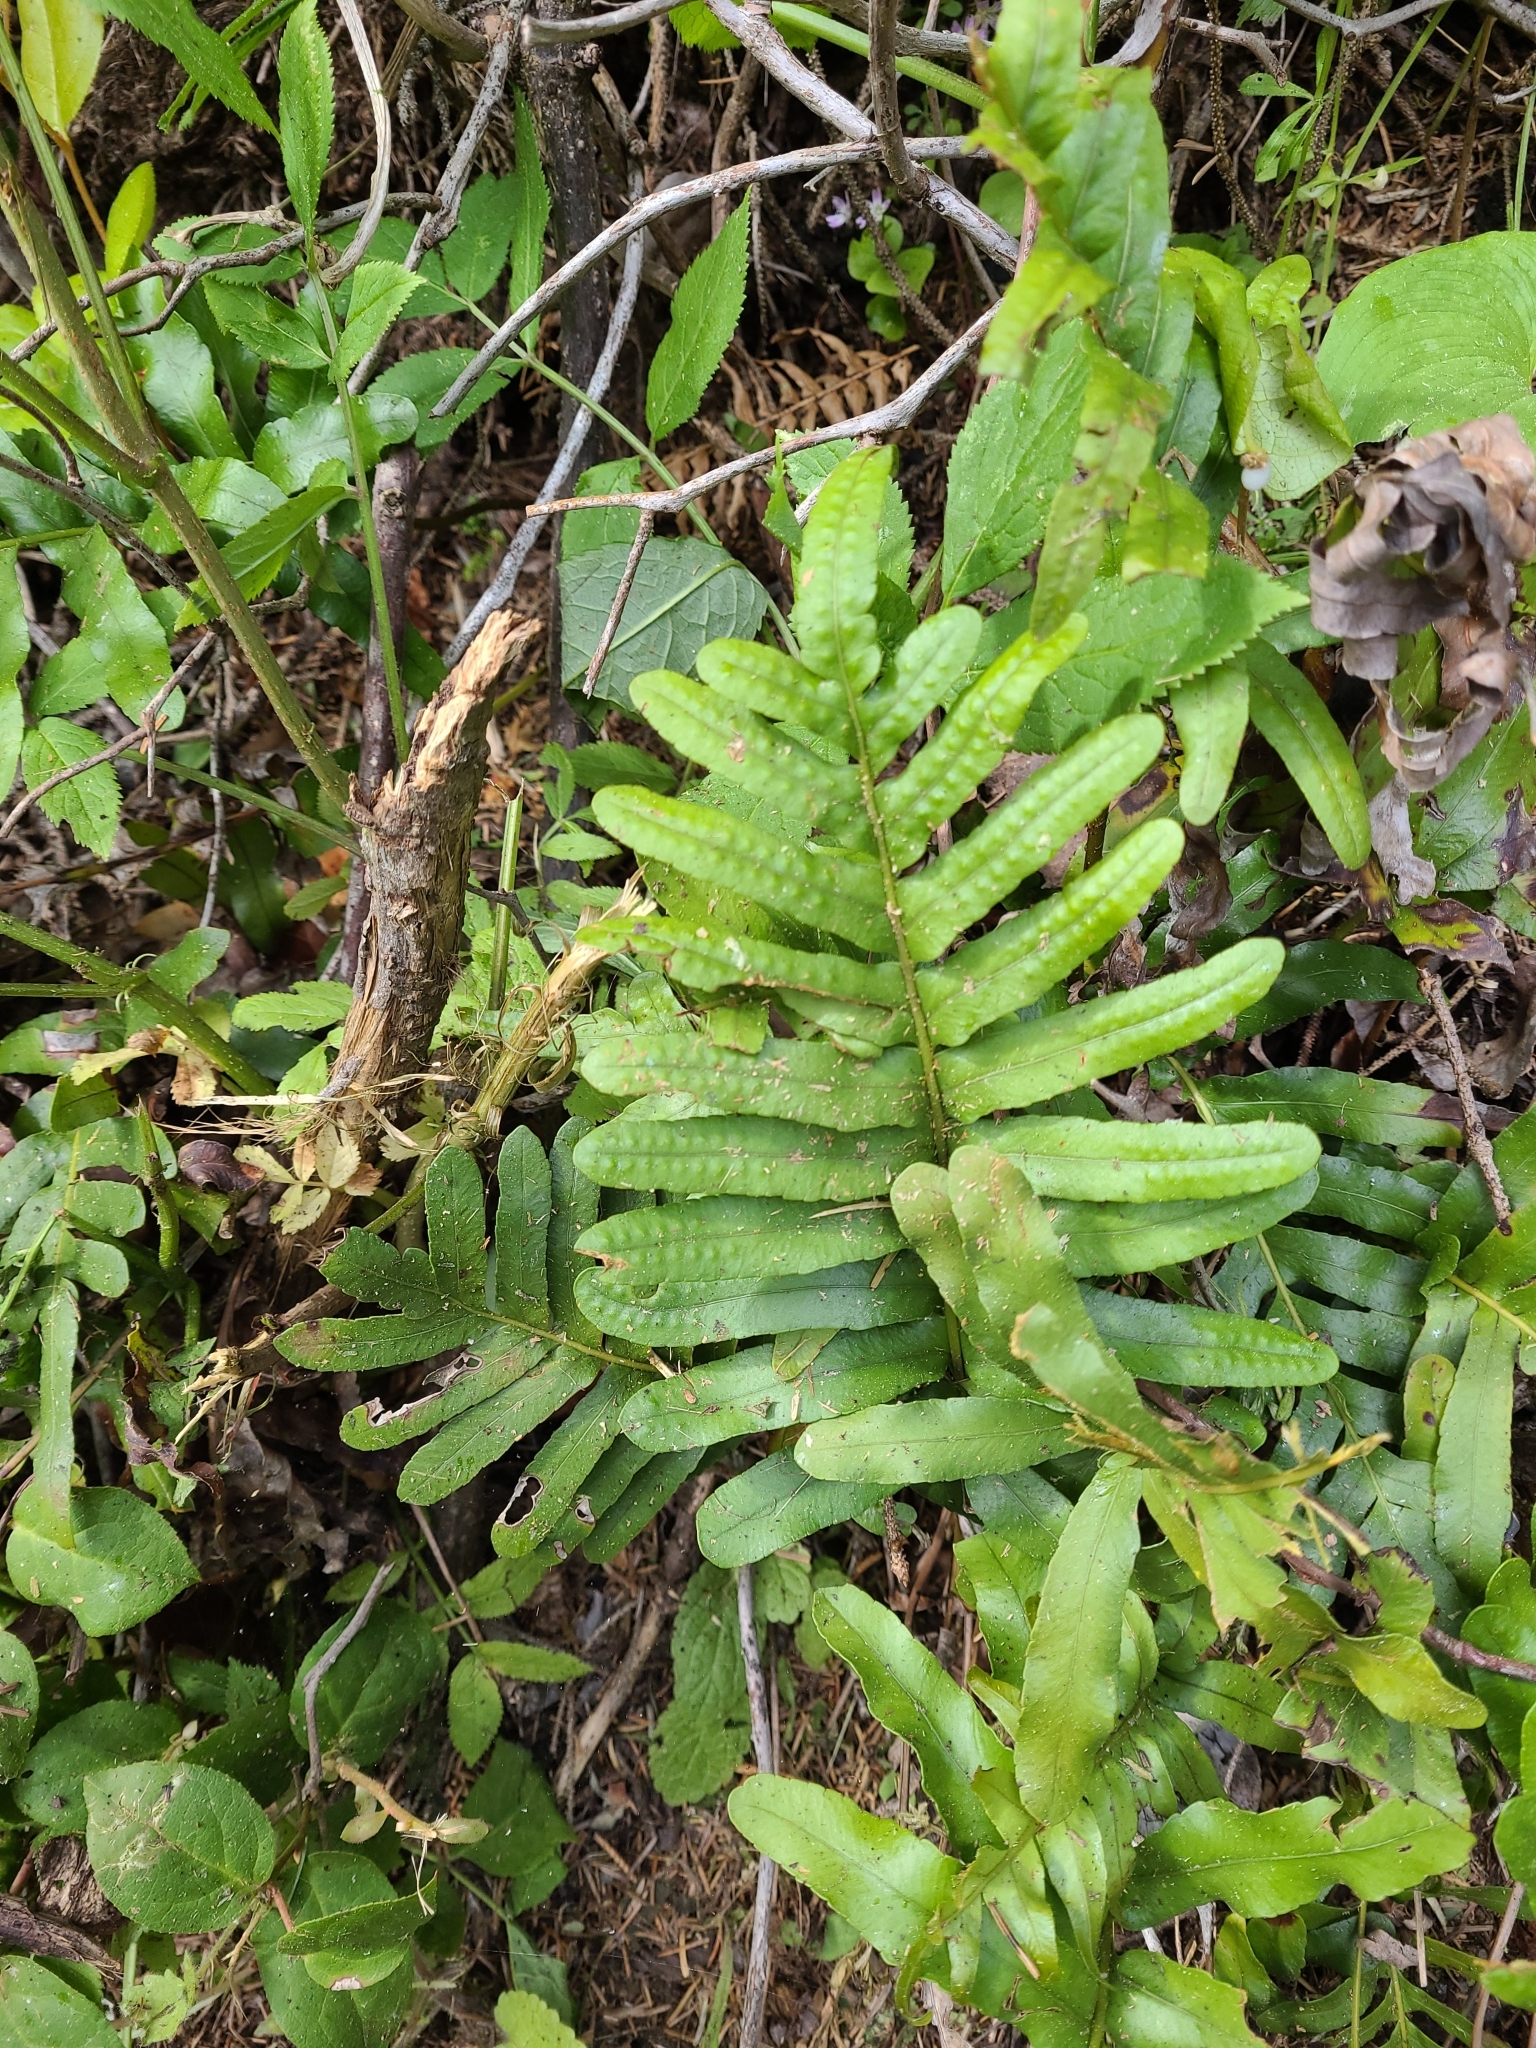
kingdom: Plantae
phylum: Tracheophyta
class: Polypodiopsida
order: Polypodiales
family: Polypodiaceae
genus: Polypodium
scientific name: Polypodium scouleri
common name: Scouler's polypody
